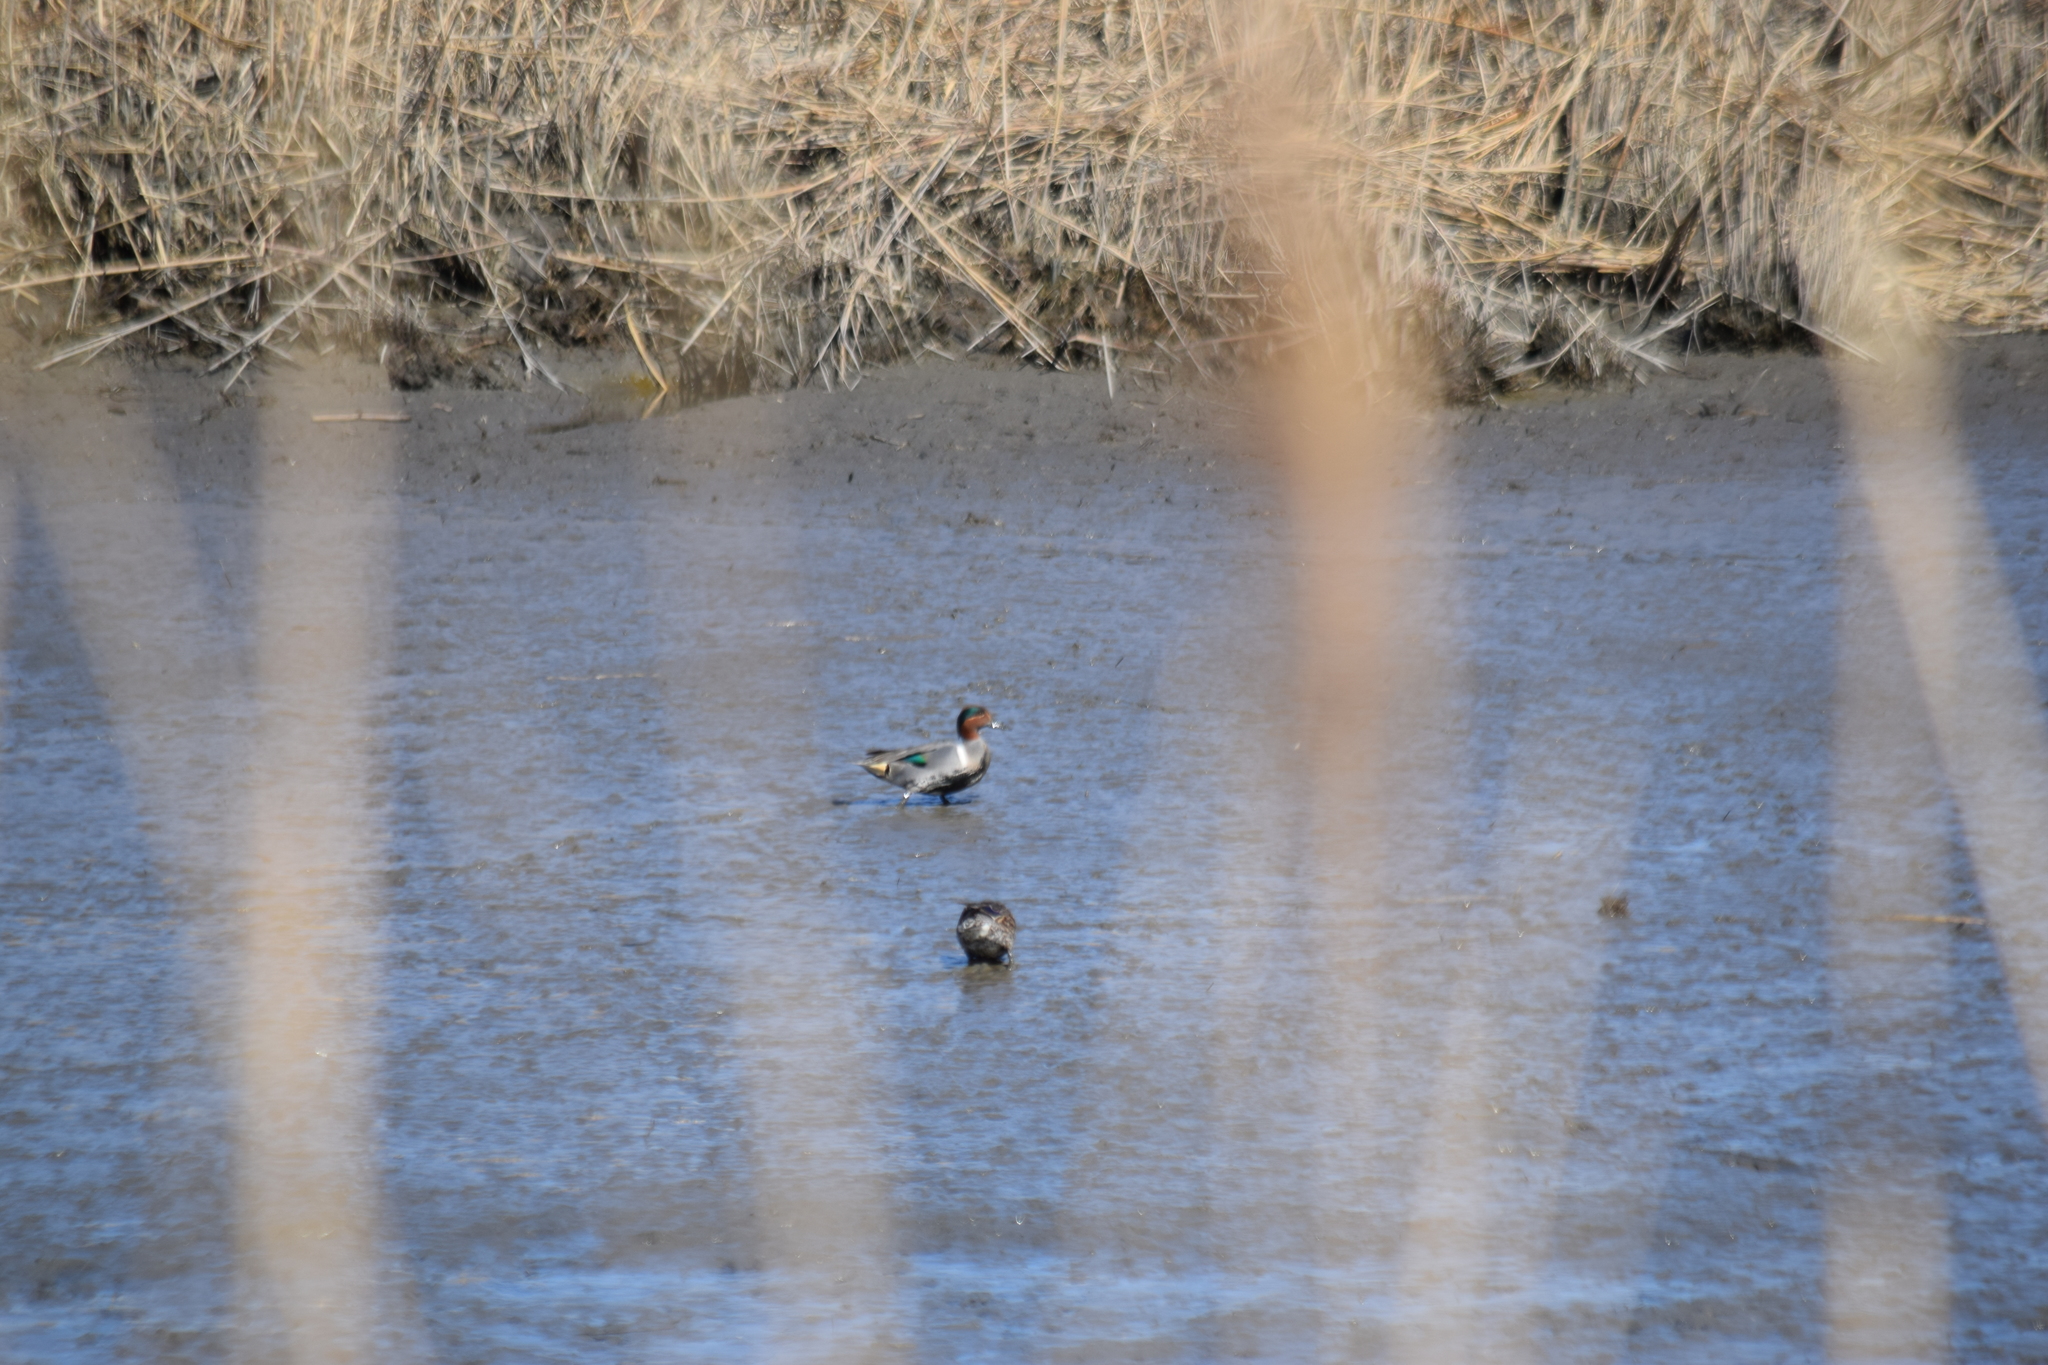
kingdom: Animalia
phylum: Chordata
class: Aves
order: Anseriformes
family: Anatidae
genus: Anas
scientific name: Anas crecca
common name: Eurasian teal
